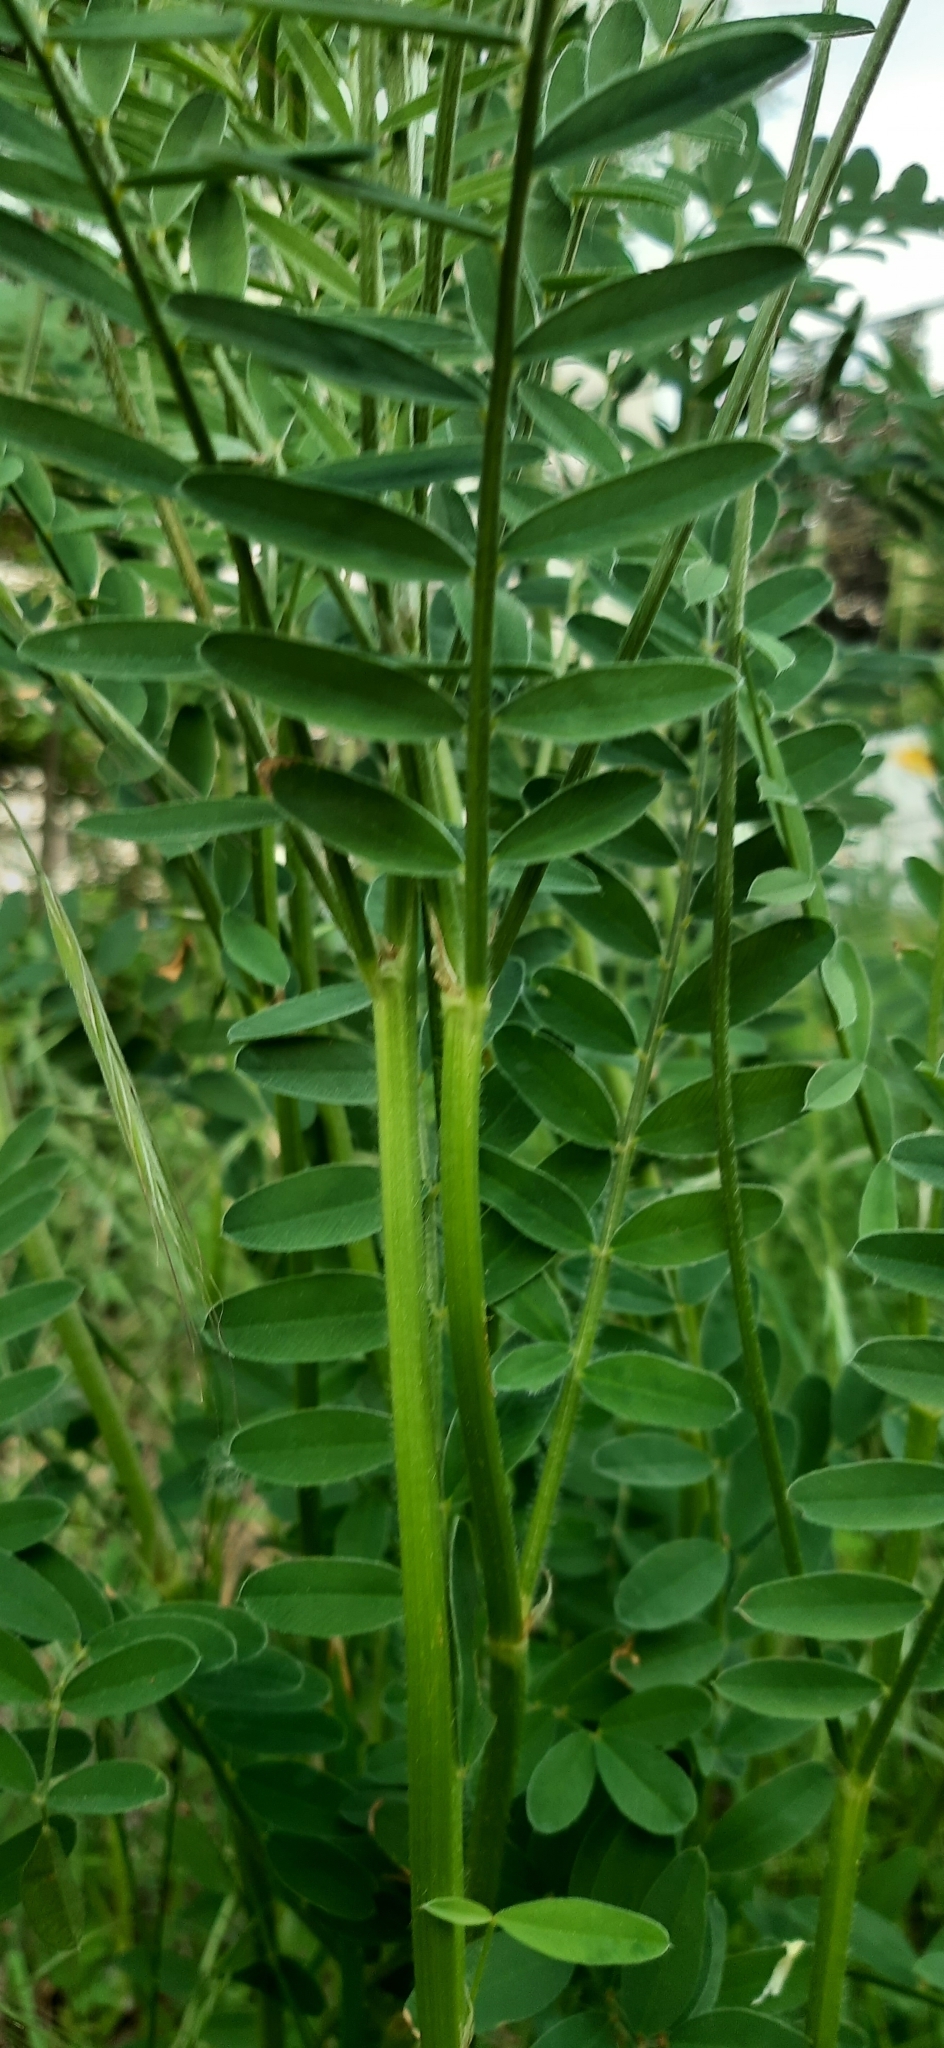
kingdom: Plantae
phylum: Tracheophyta
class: Magnoliopsida
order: Fabales
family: Fabaceae
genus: Onobrychis
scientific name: Onobrychis viciifolia
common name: Sainfoin
